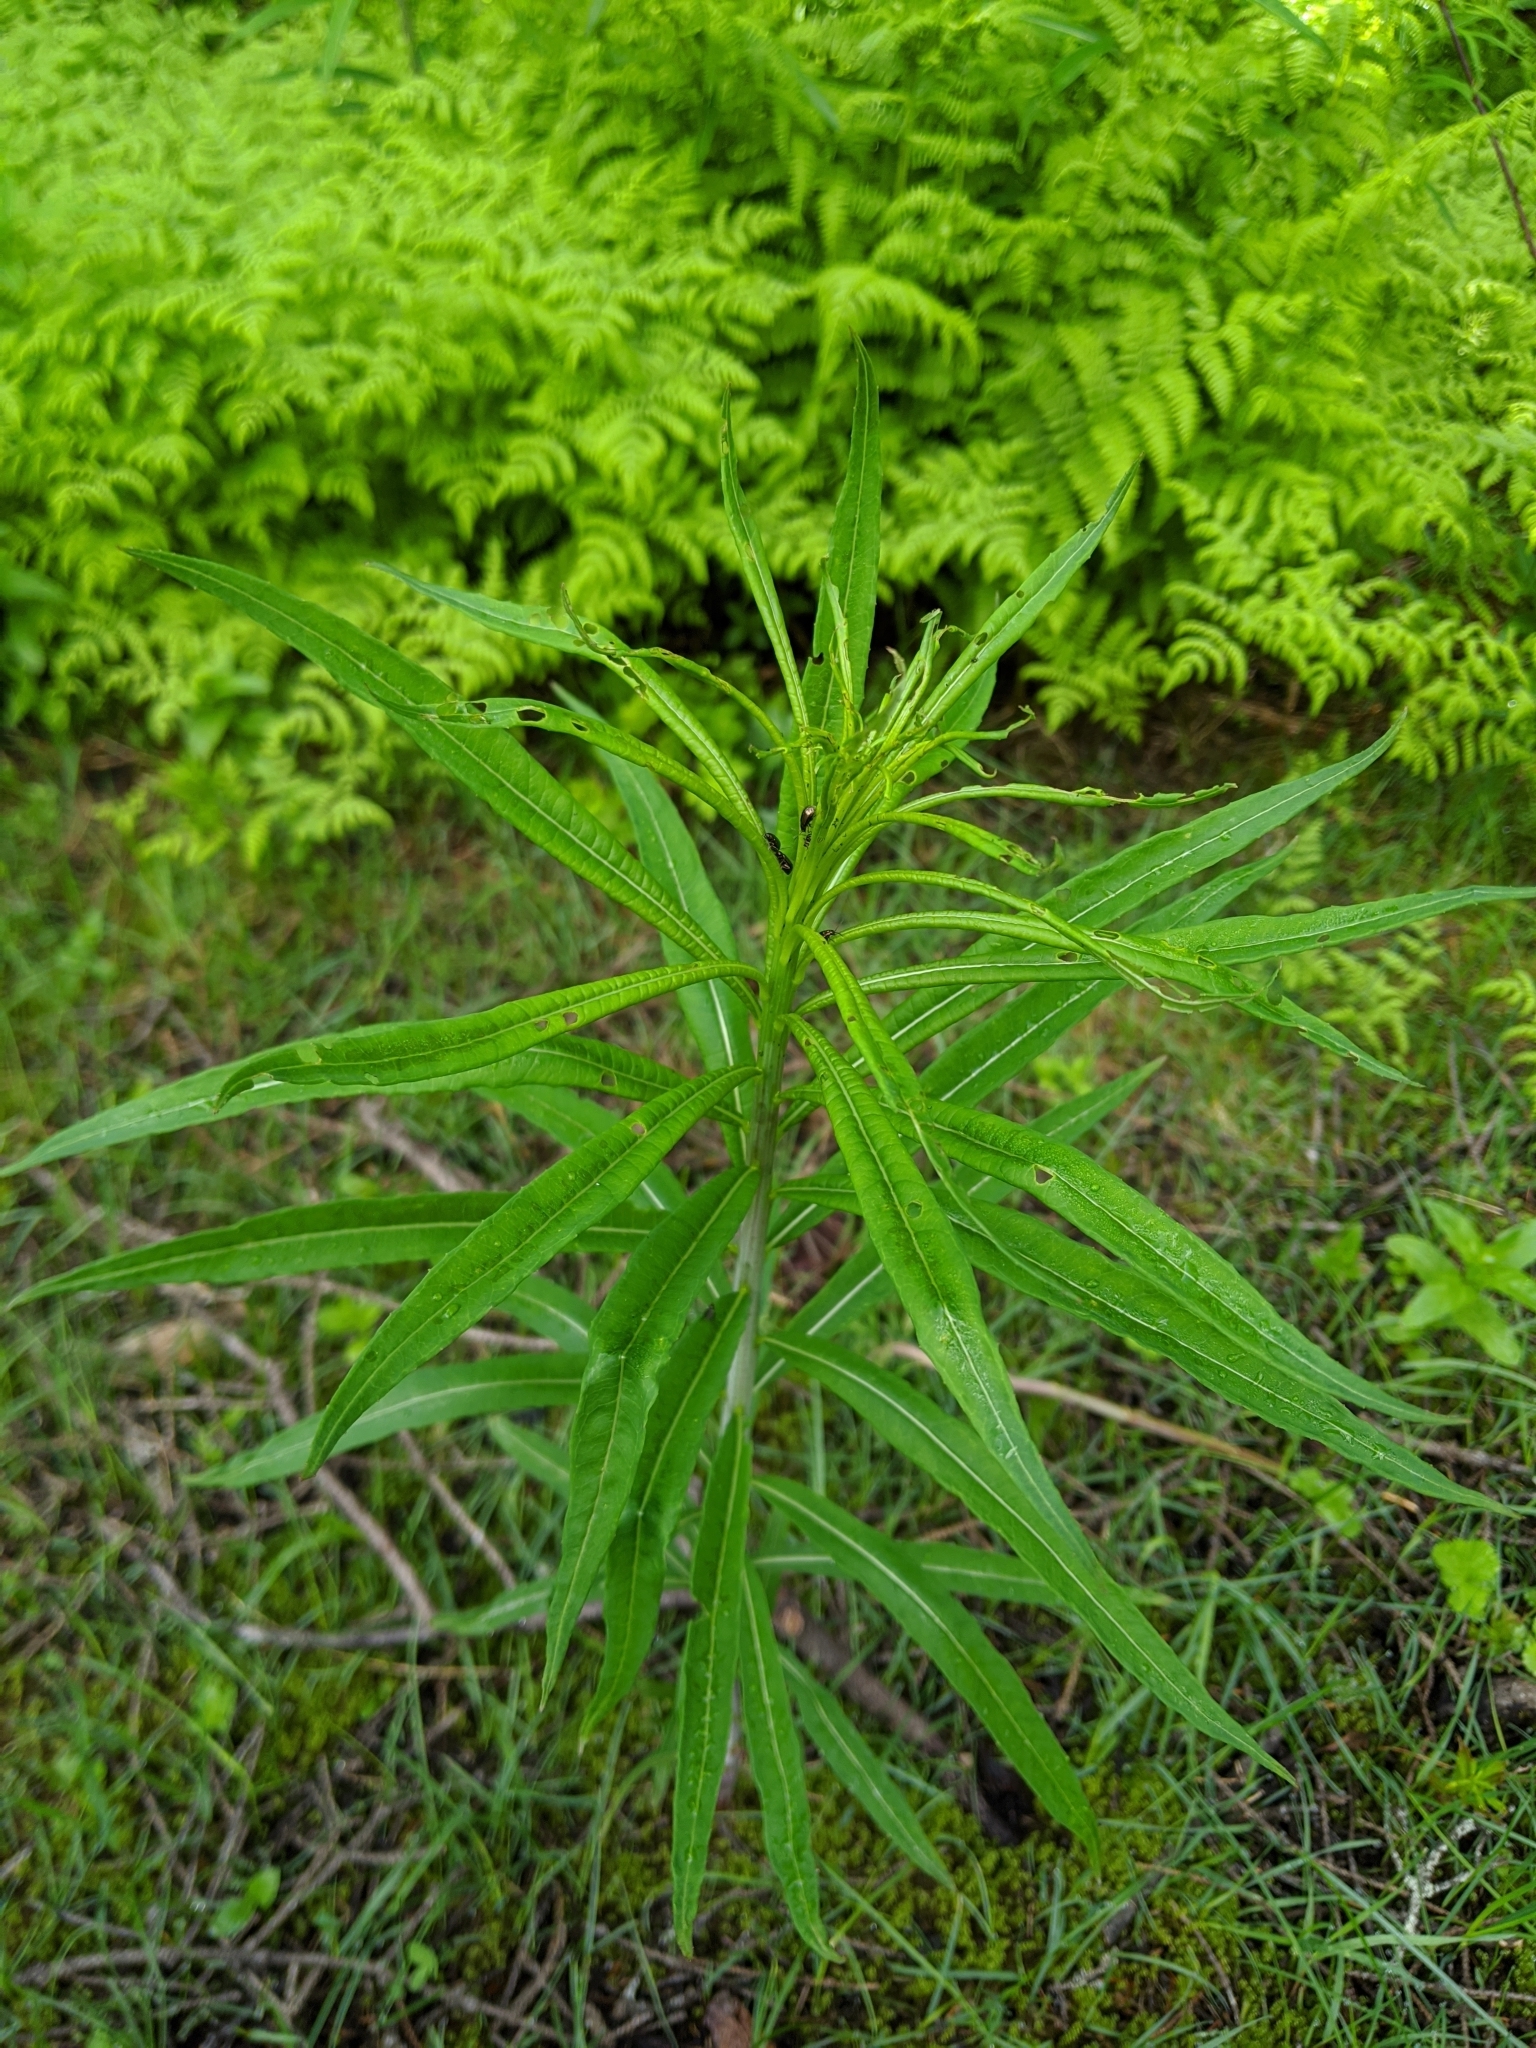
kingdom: Plantae
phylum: Tracheophyta
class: Magnoliopsida
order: Myrtales
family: Onagraceae
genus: Chamaenerion
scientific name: Chamaenerion angustifolium
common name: Fireweed
